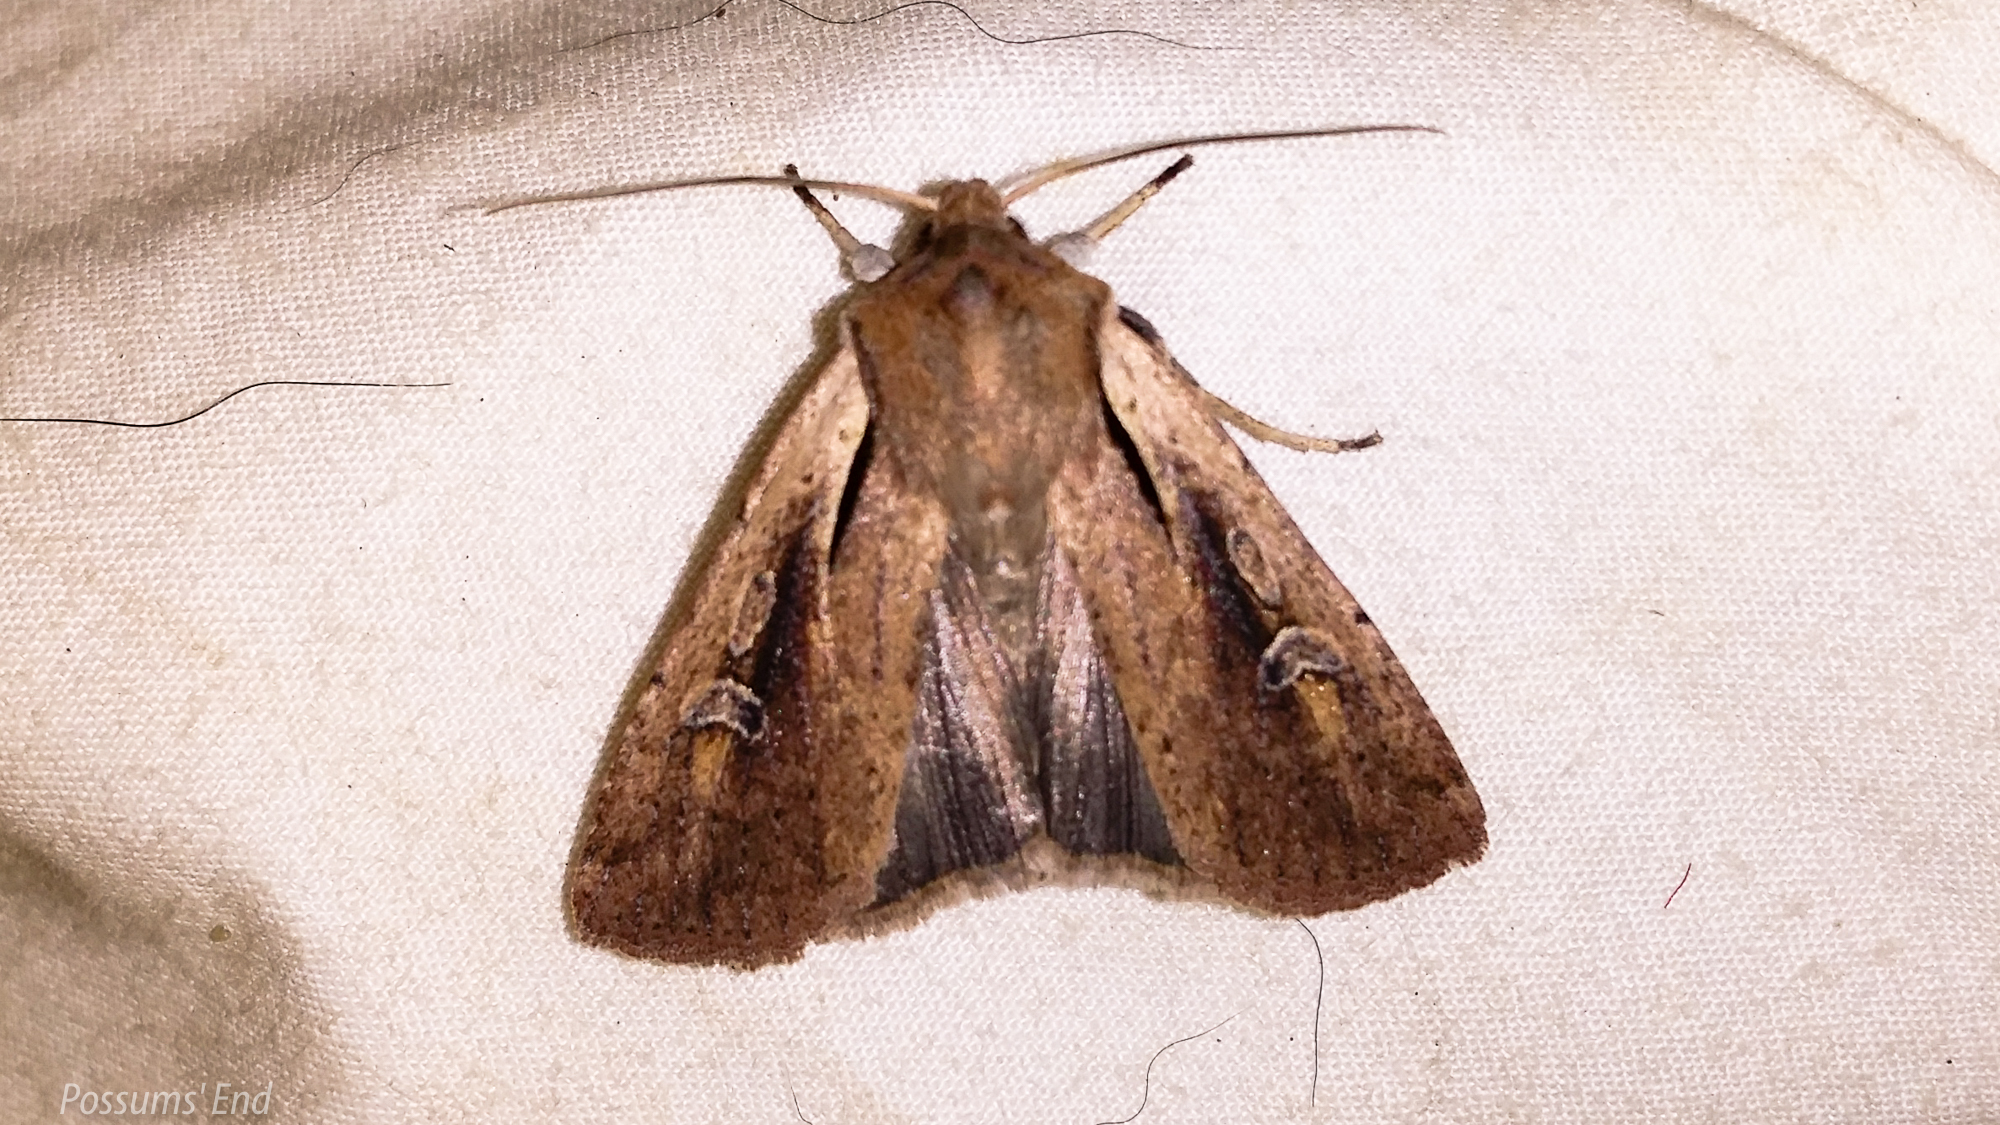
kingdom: Animalia
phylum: Arthropoda
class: Insecta
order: Lepidoptera
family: Noctuidae
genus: Ichneutica
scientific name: Ichneutica atristriga
